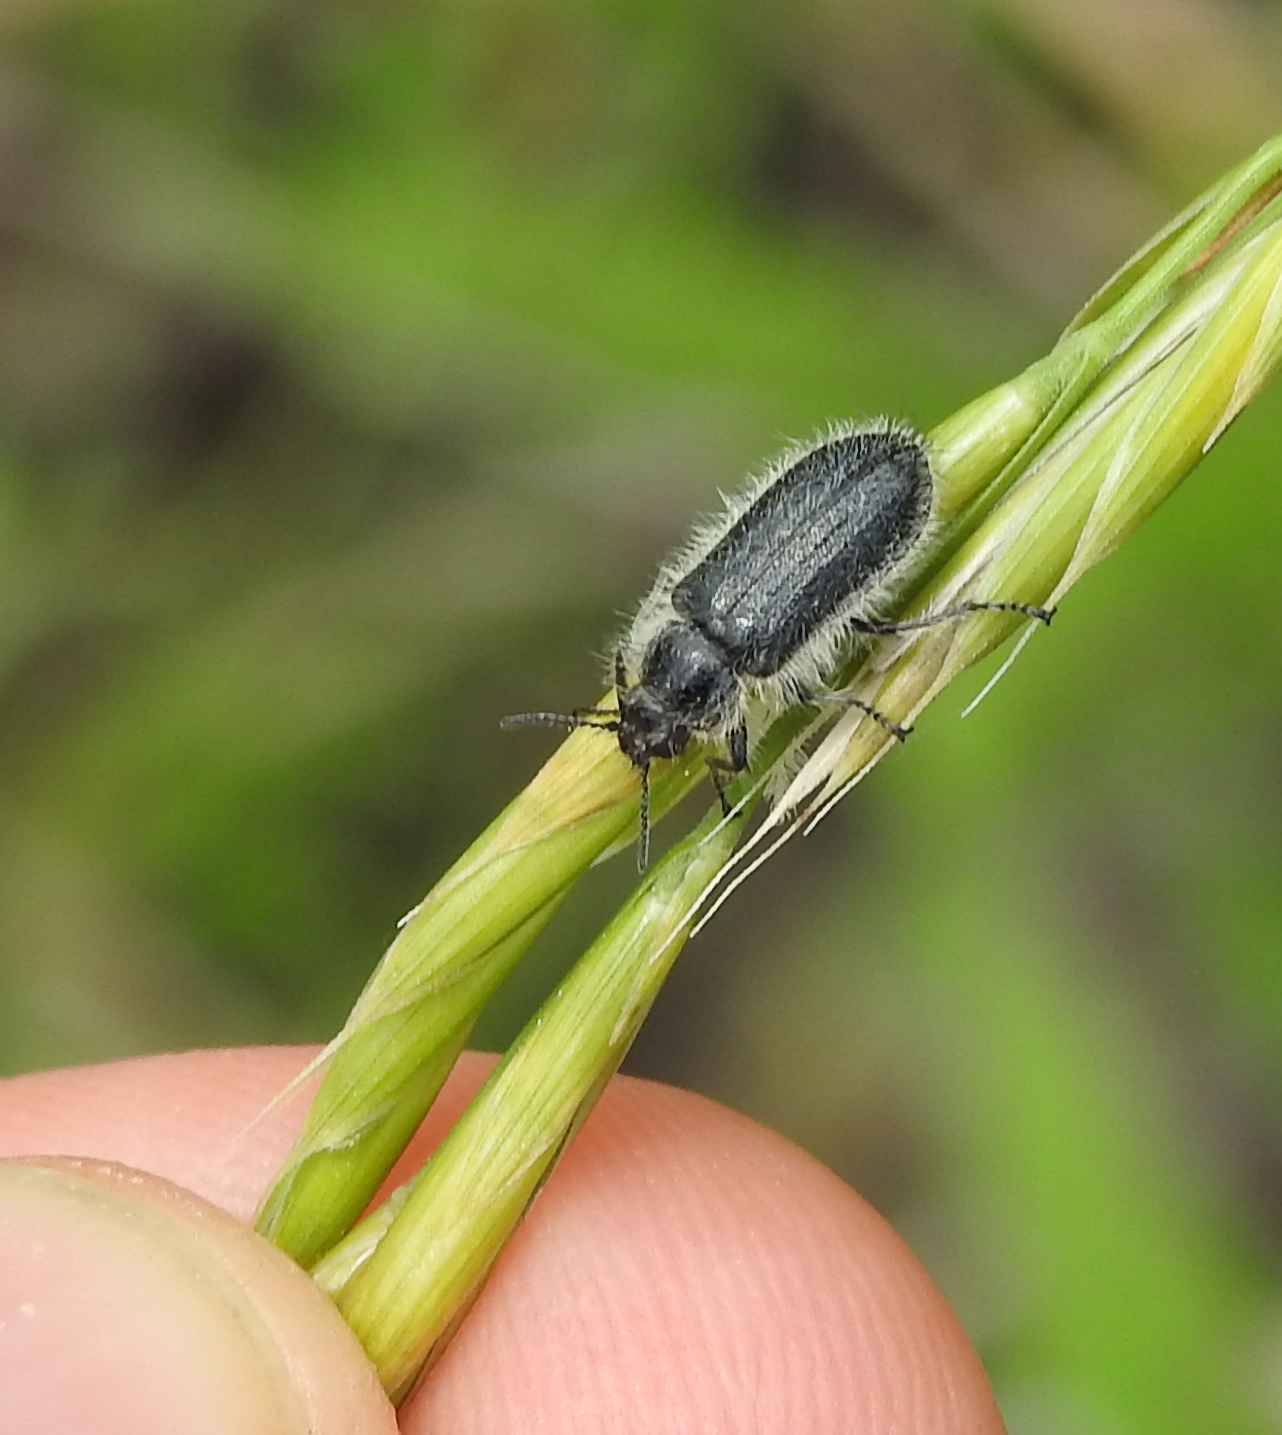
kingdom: Animalia
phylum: Arthropoda
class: Insecta
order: Coleoptera
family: Melyridae
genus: Enicopus
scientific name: Enicopus pilosus
